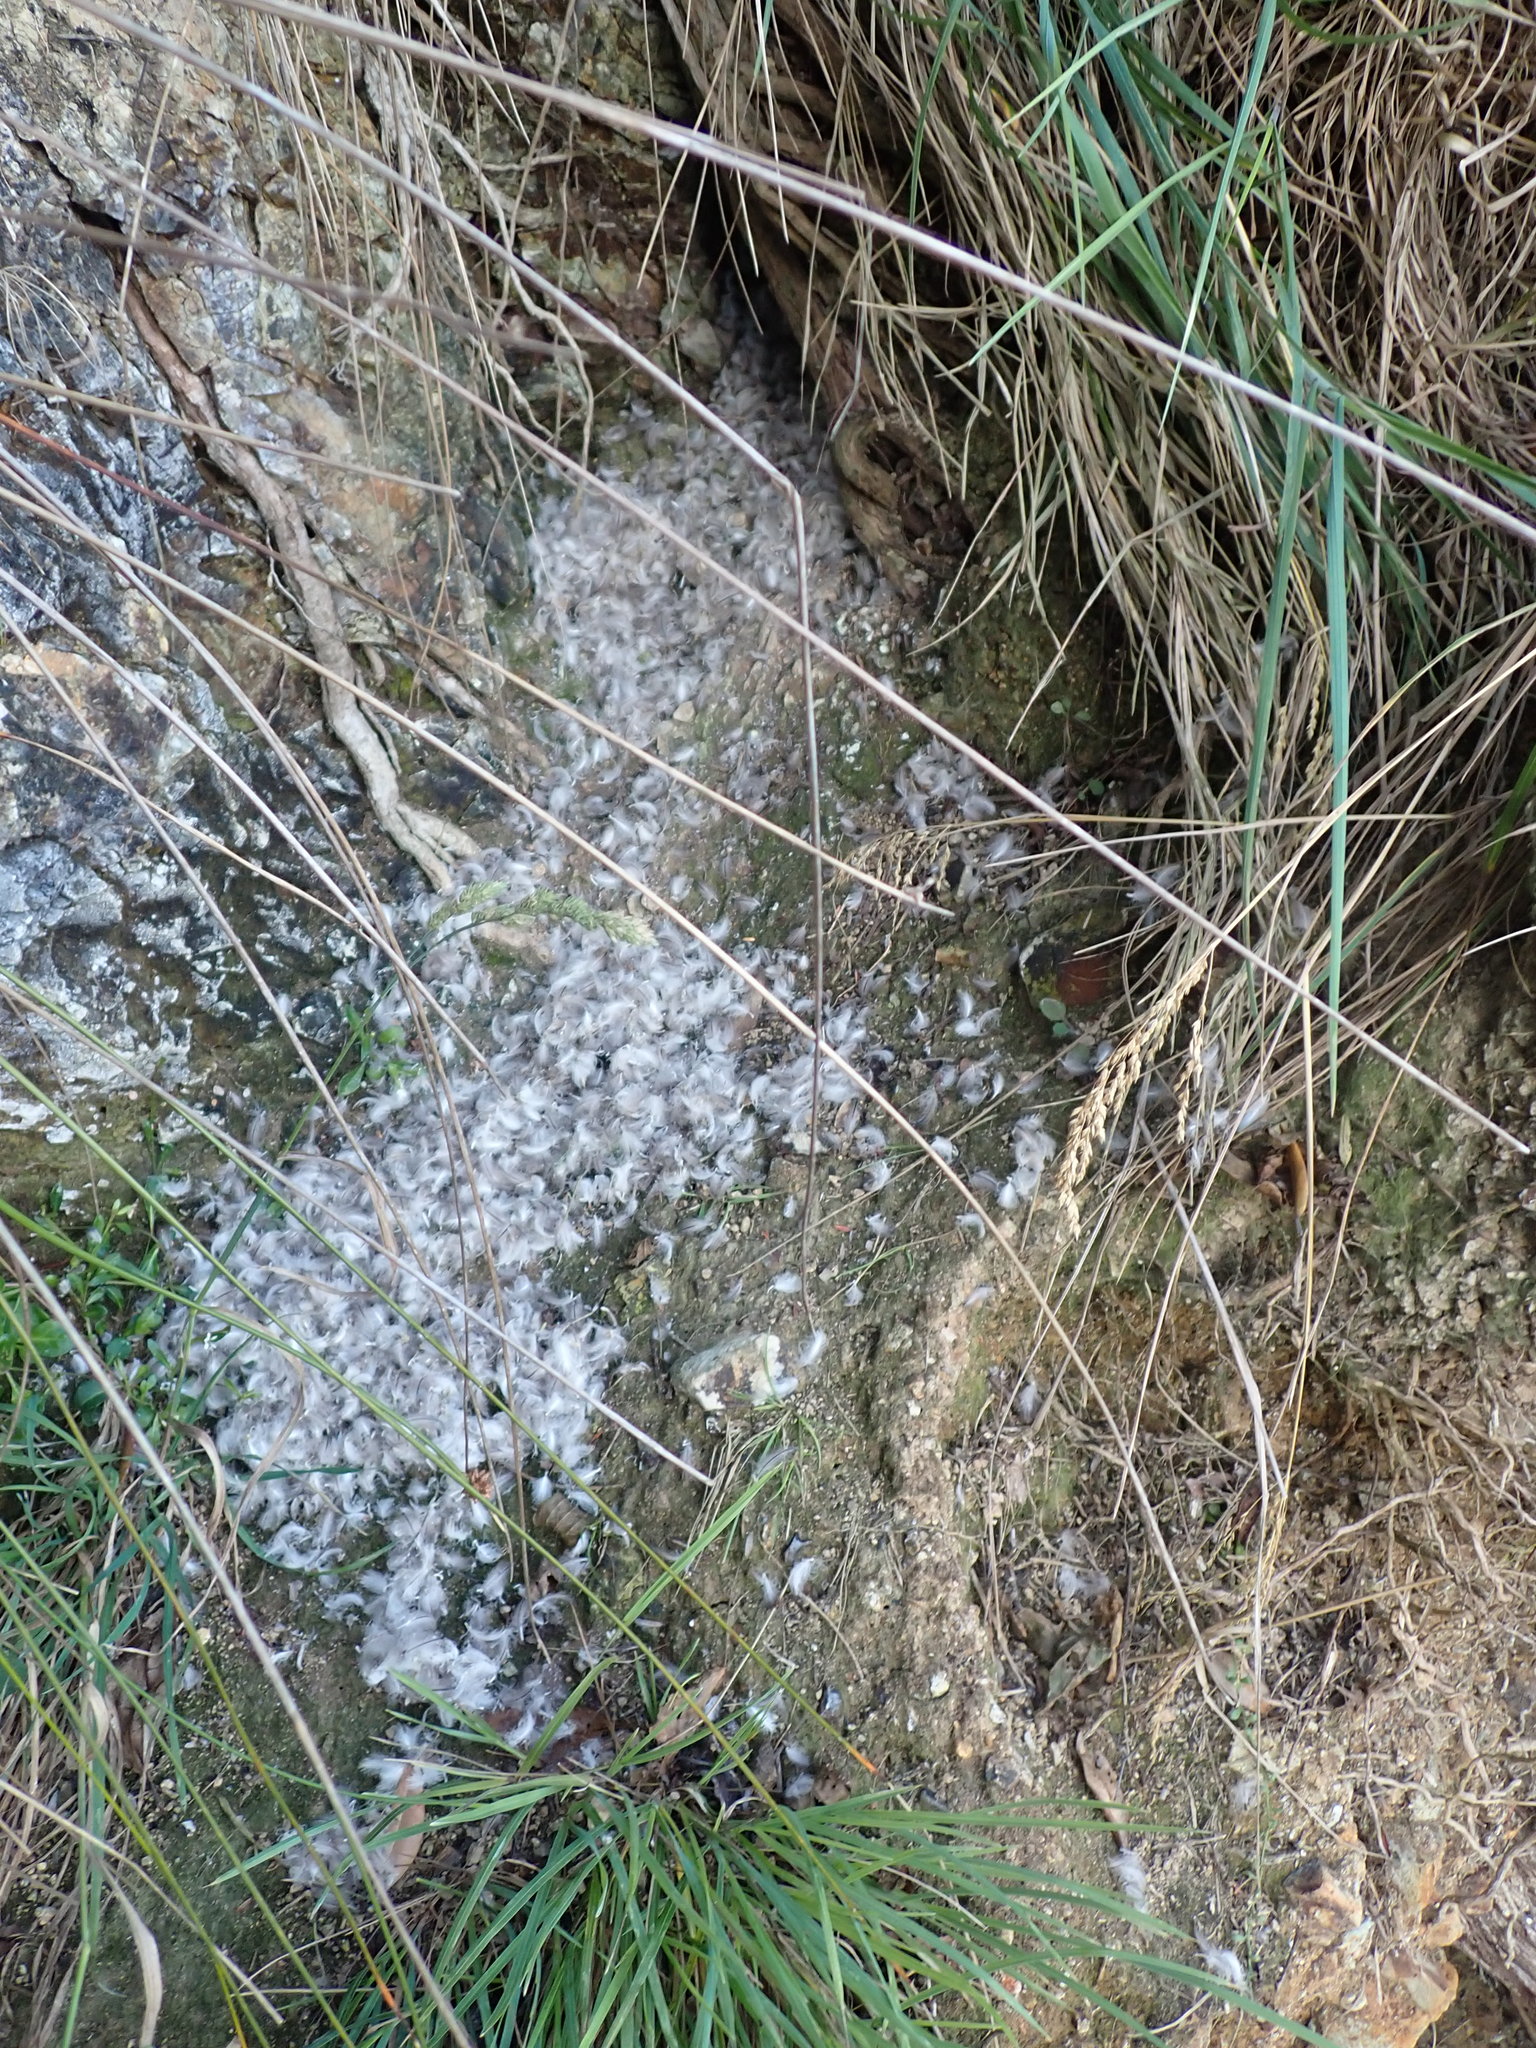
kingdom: Animalia
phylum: Chordata
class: Aves
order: Sphenisciformes
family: Spheniscidae
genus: Eudyptula
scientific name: Eudyptula minor
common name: Little penguin
